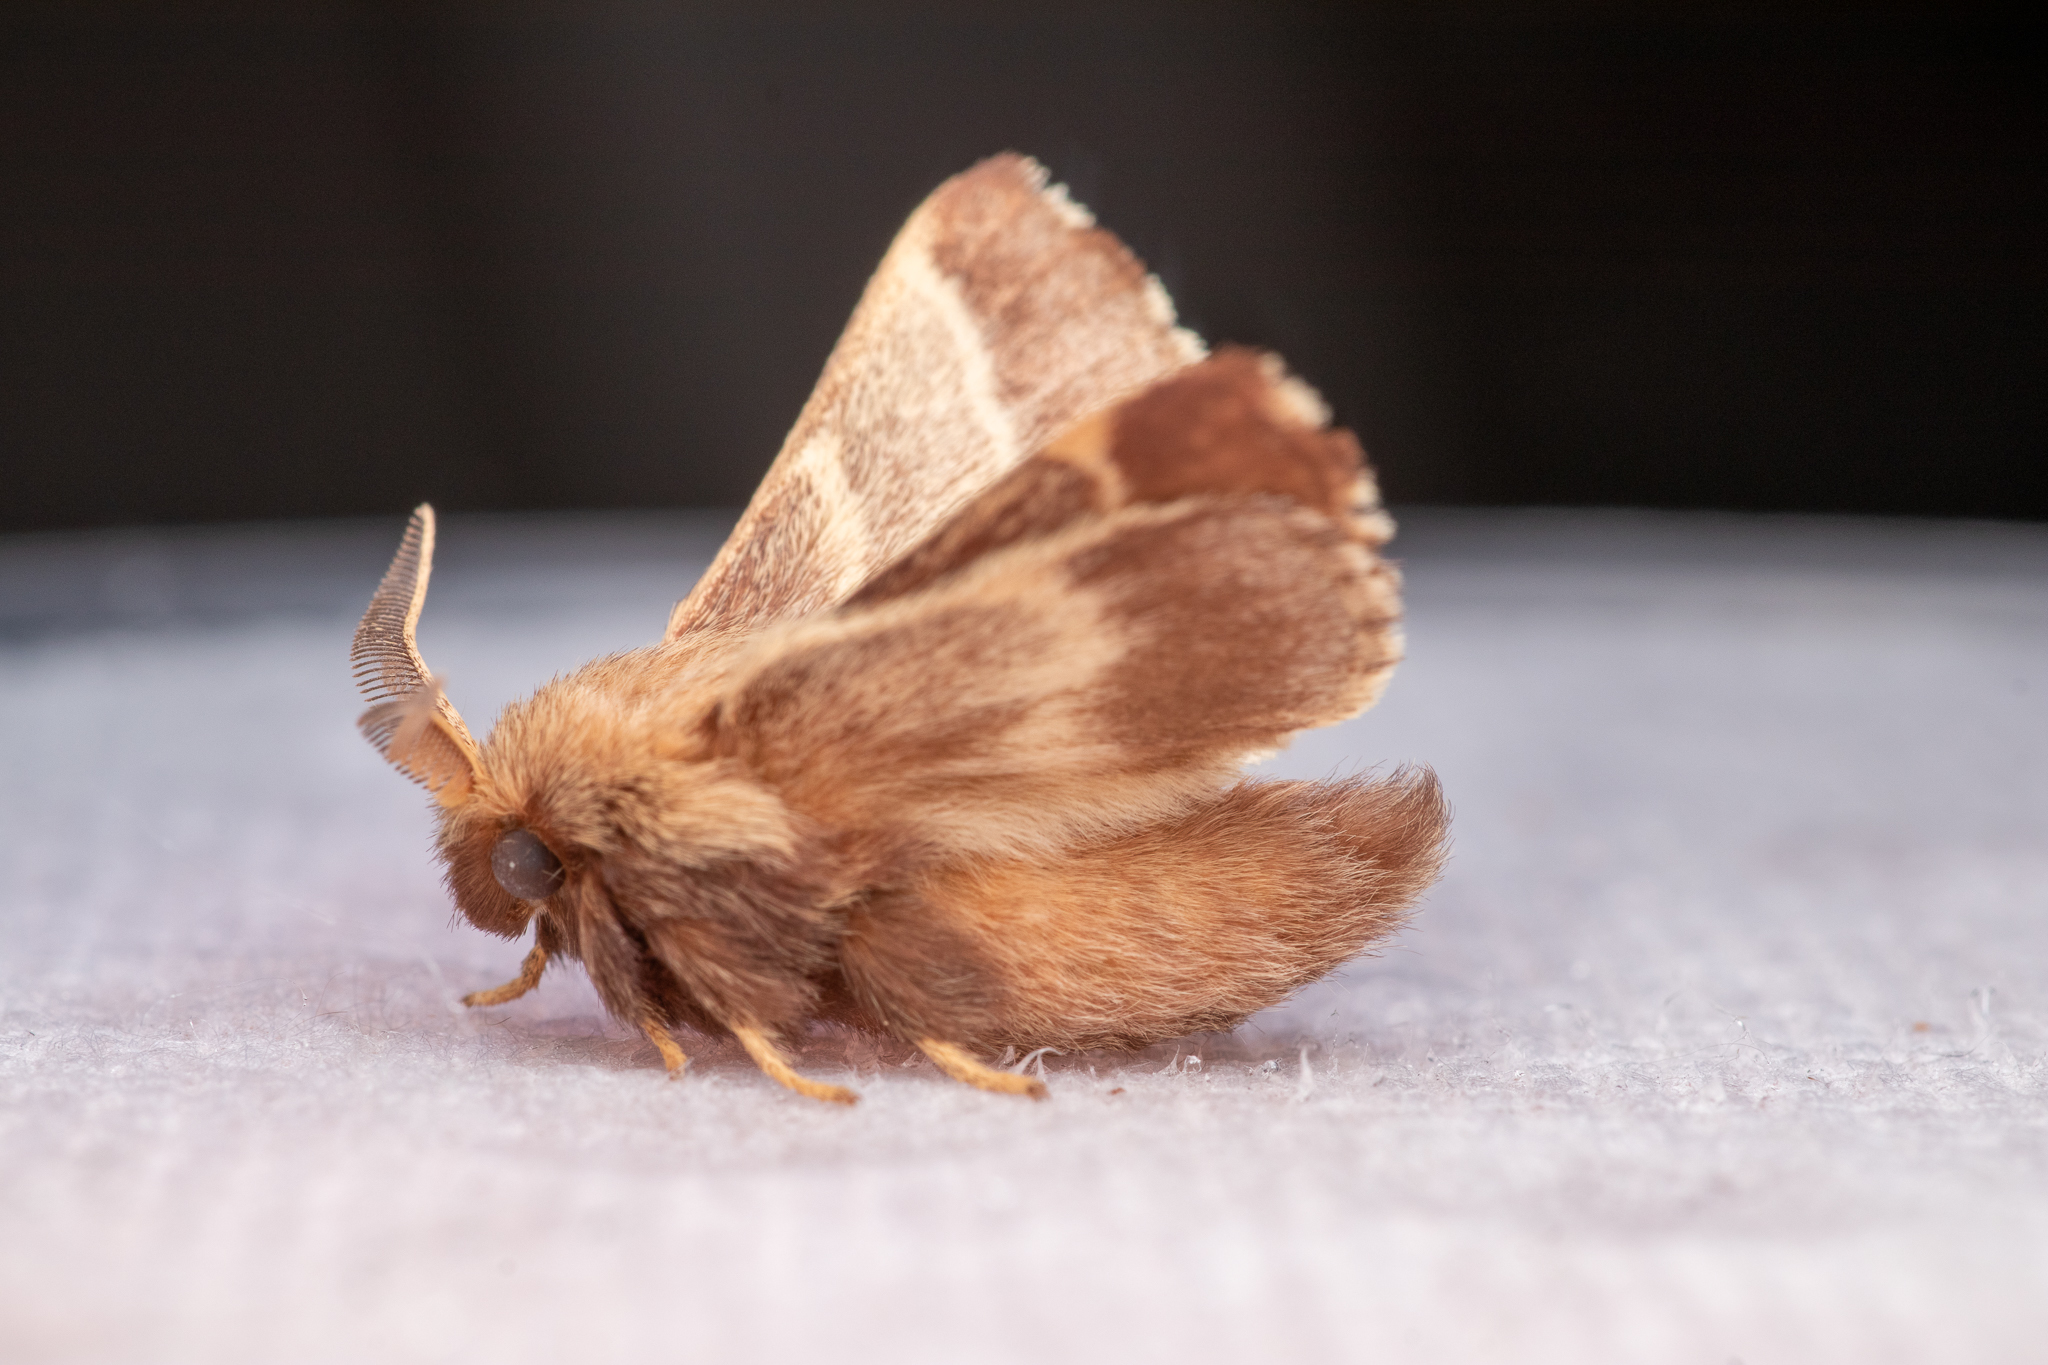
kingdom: Animalia
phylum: Arthropoda
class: Insecta
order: Lepidoptera
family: Lasiocampidae
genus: Malacosoma
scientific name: Malacosoma americana
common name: Eastern tent caterpillar moth
